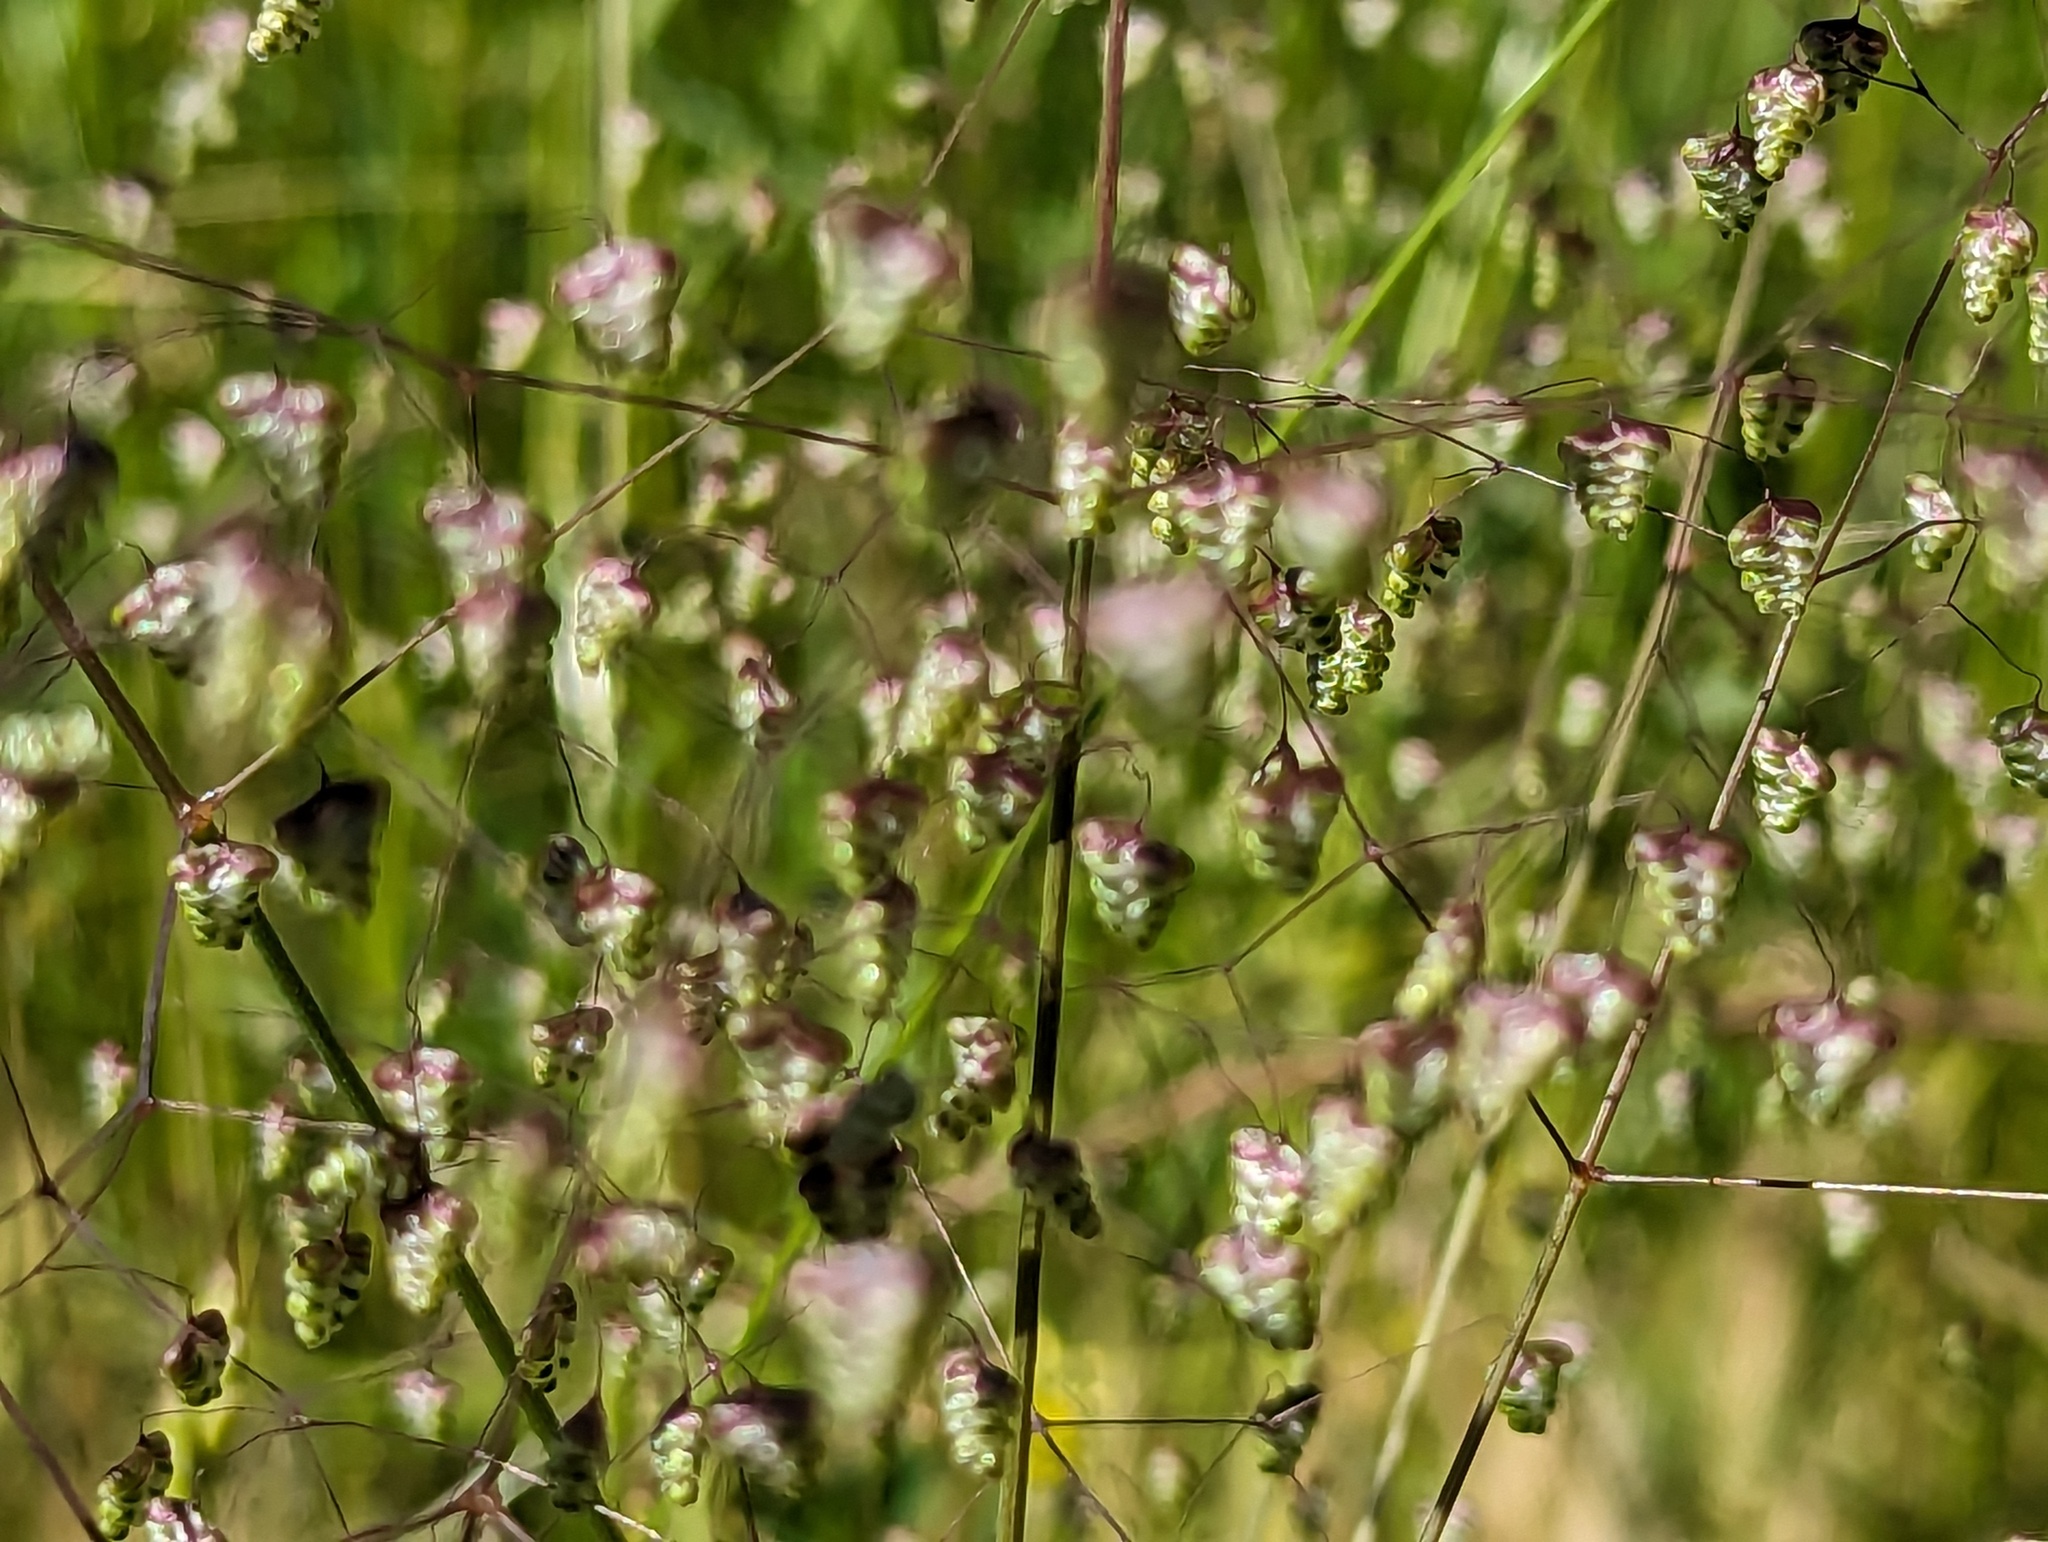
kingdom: Plantae
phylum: Tracheophyta
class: Liliopsida
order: Poales
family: Poaceae
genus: Briza
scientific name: Briza minor
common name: Lesser quaking-grass
